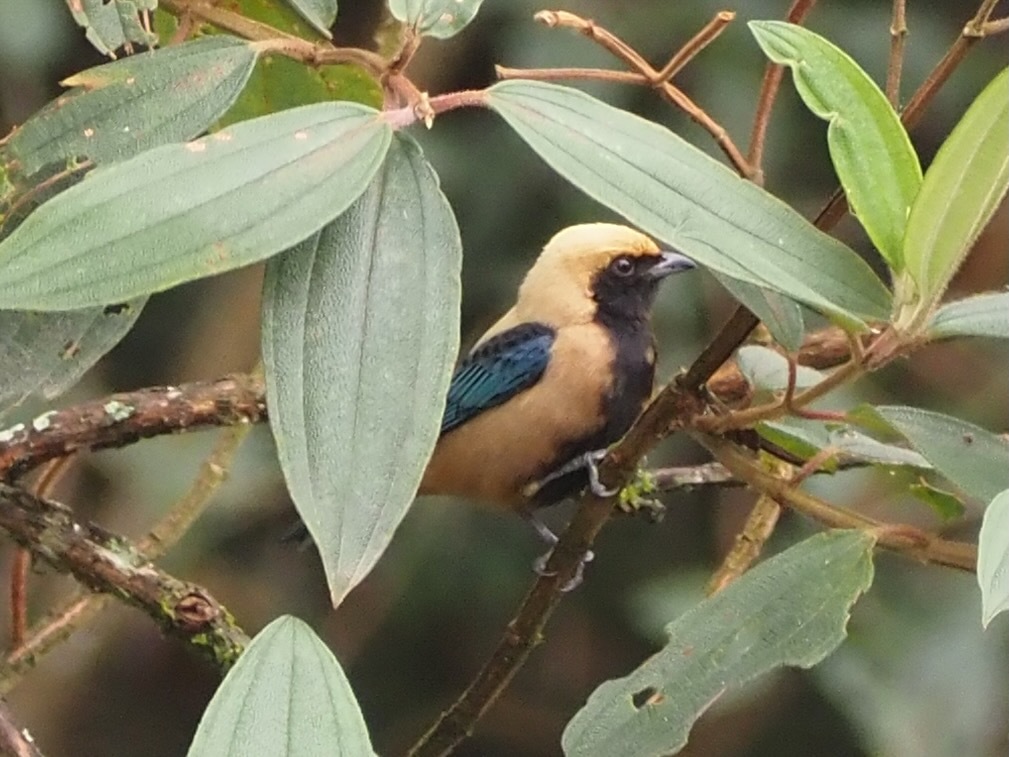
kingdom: Animalia
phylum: Chordata
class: Aves
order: Passeriformes
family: Thraupidae
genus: Stilpnia
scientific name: Stilpnia cayana
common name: Burnished-buff tanager
